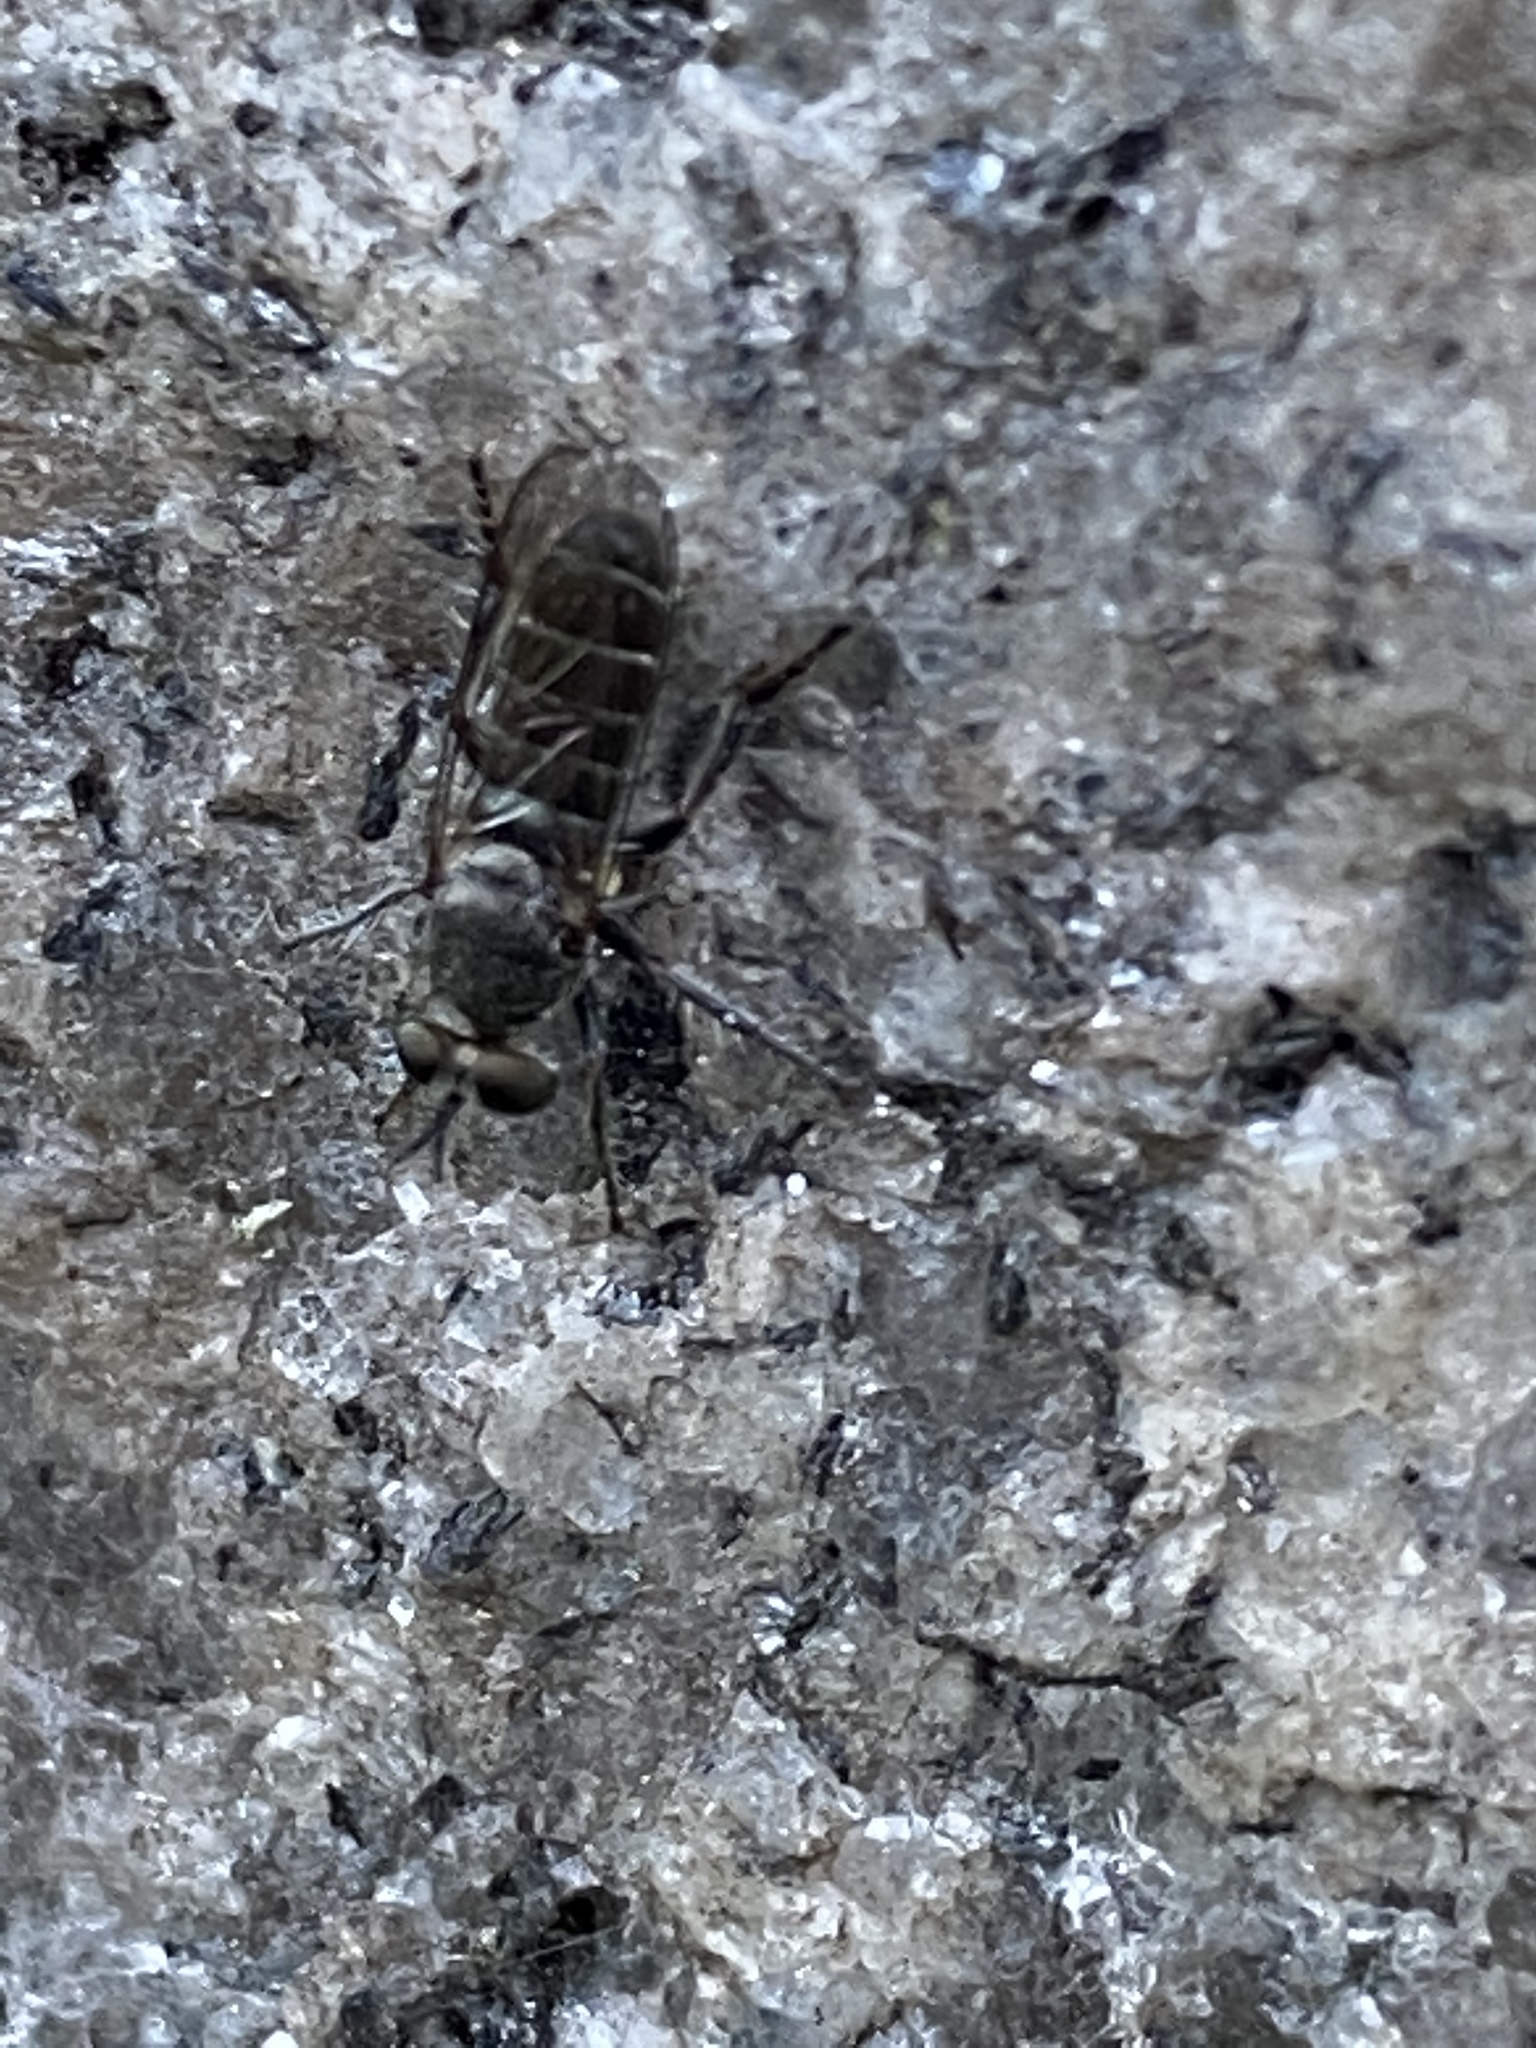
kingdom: Animalia
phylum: Arthropoda
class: Insecta
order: Diptera
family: Asilidae
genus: Atomosia
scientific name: Atomosia puella
